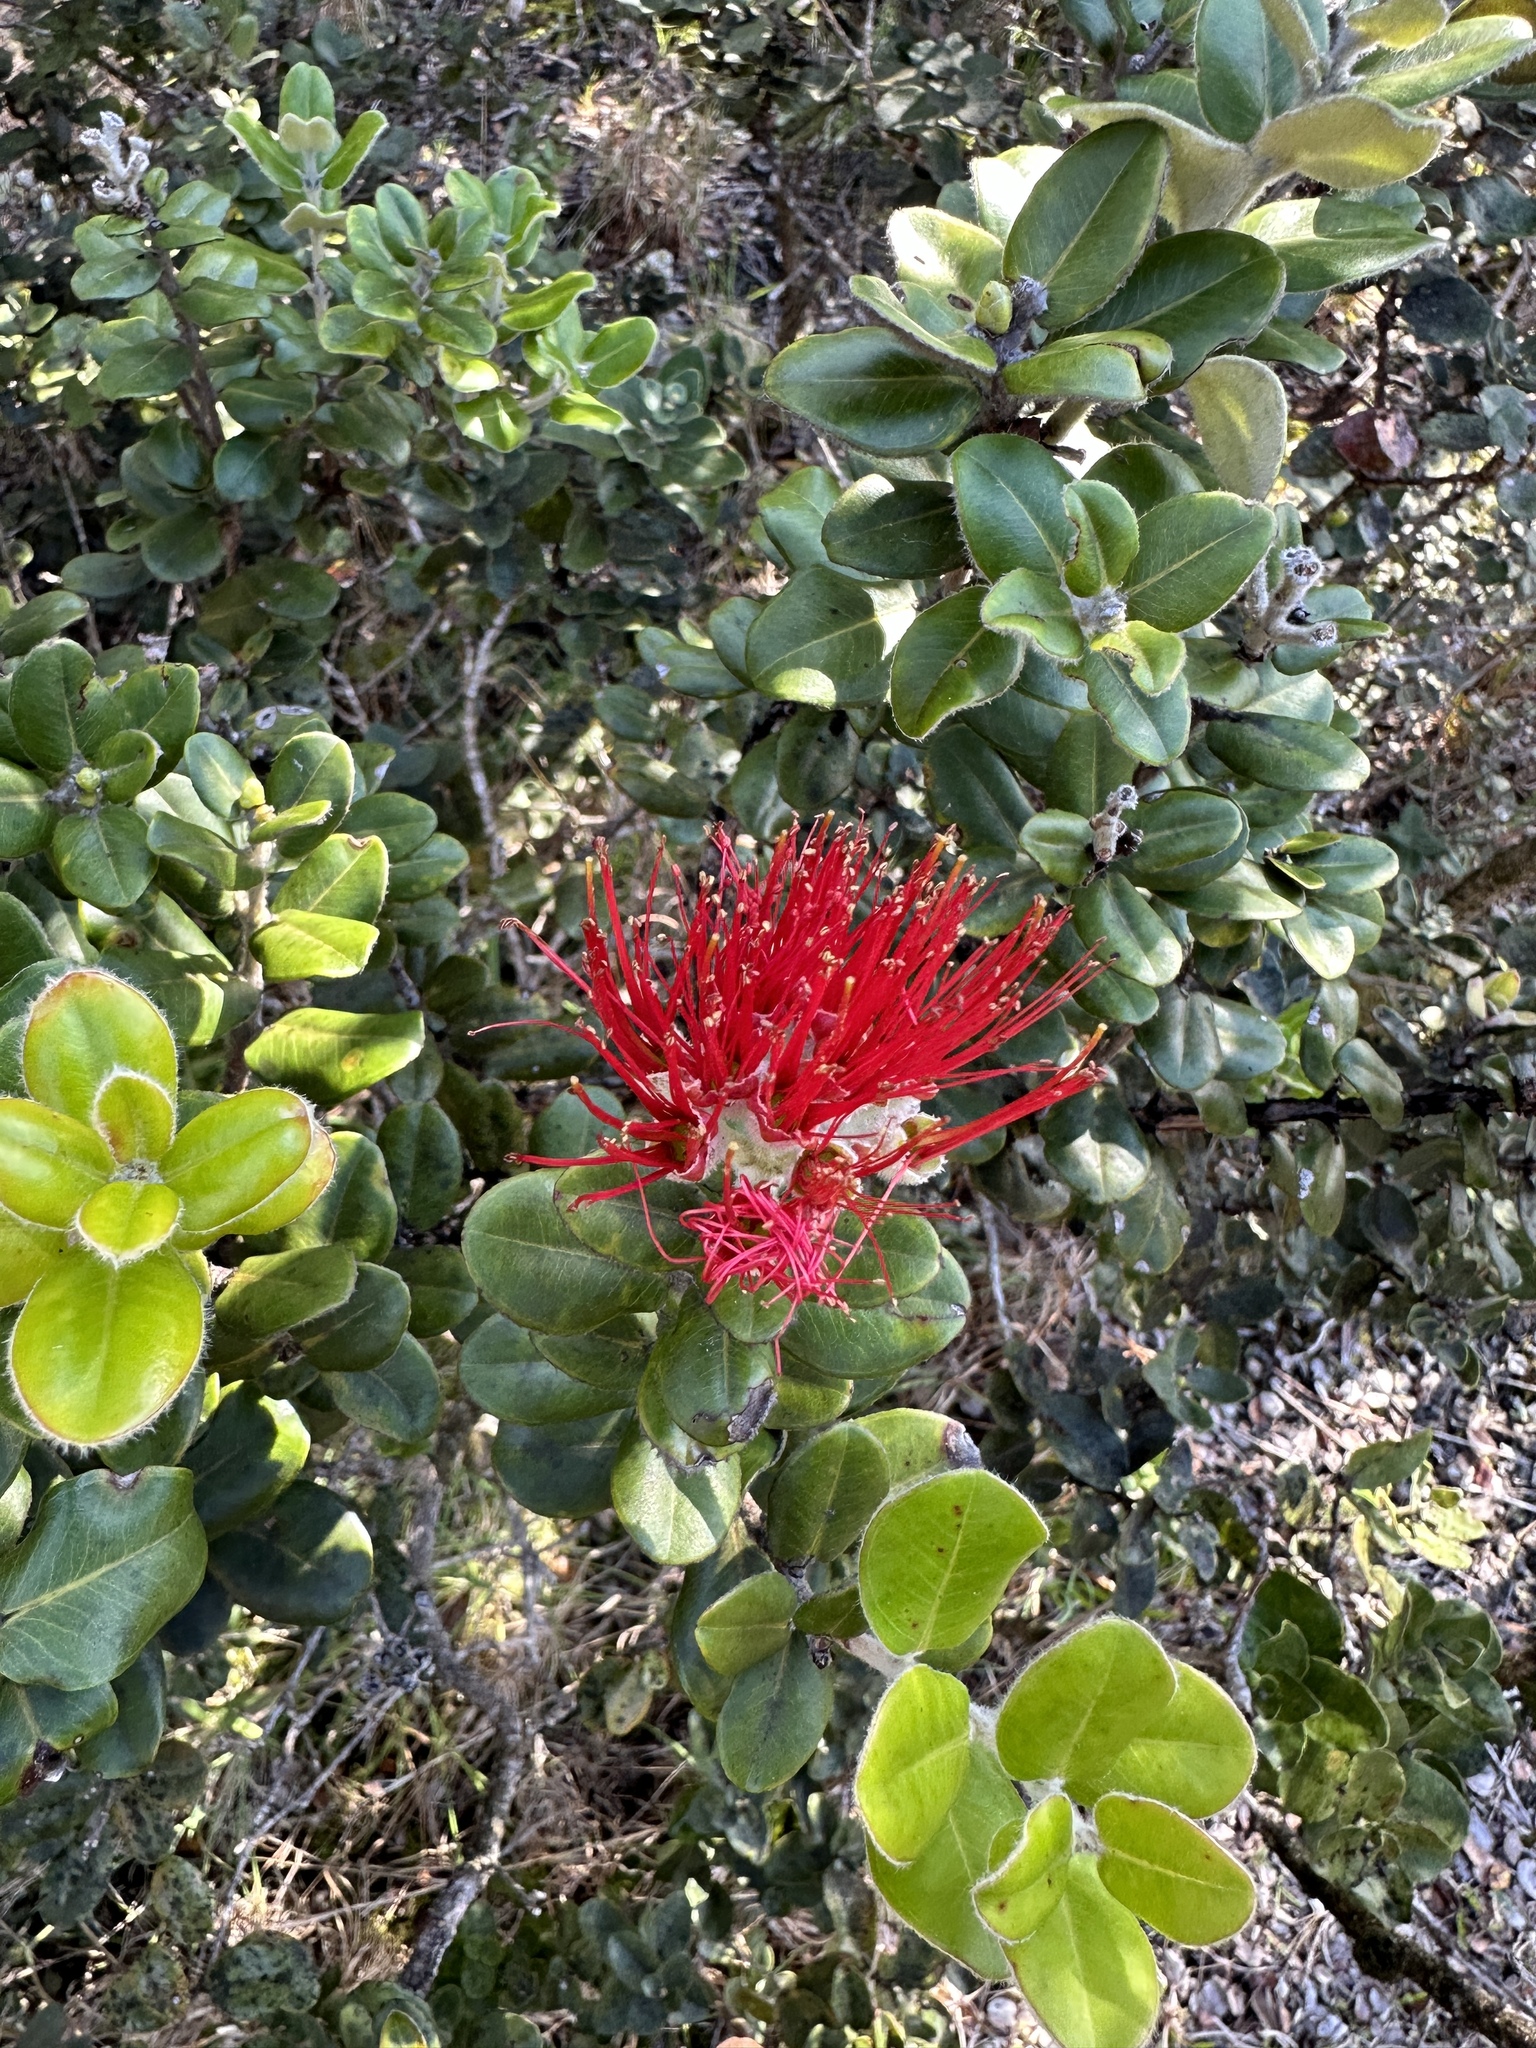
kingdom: Plantae
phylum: Tracheophyta
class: Magnoliopsida
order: Myrtales
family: Myrtaceae
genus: Metrosideros
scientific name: Metrosideros polymorpha
